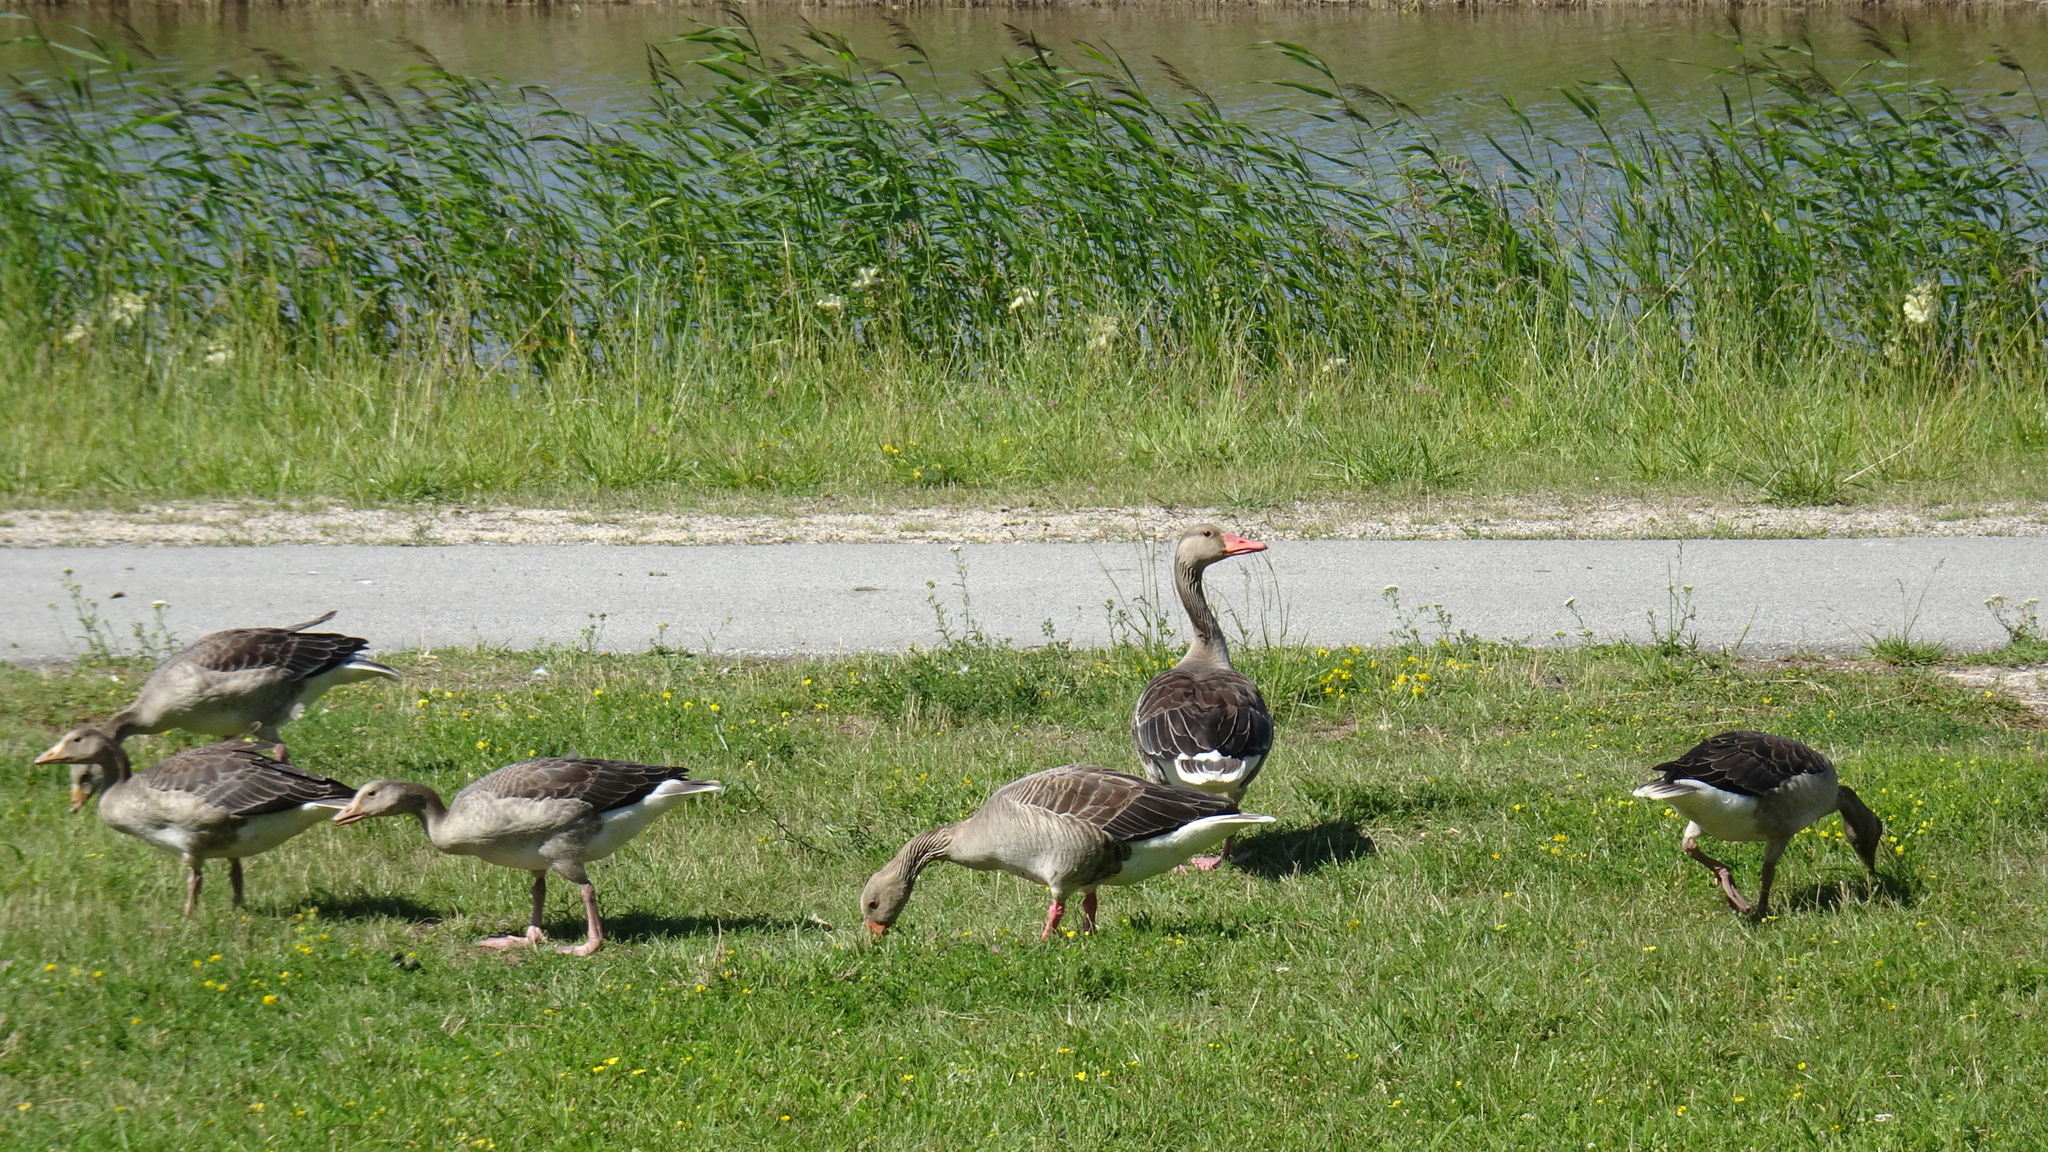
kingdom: Animalia
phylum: Chordata
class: Aves
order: Anseriformes
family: Anatidae
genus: Anser
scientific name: Anser anser
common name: Greylag goose
